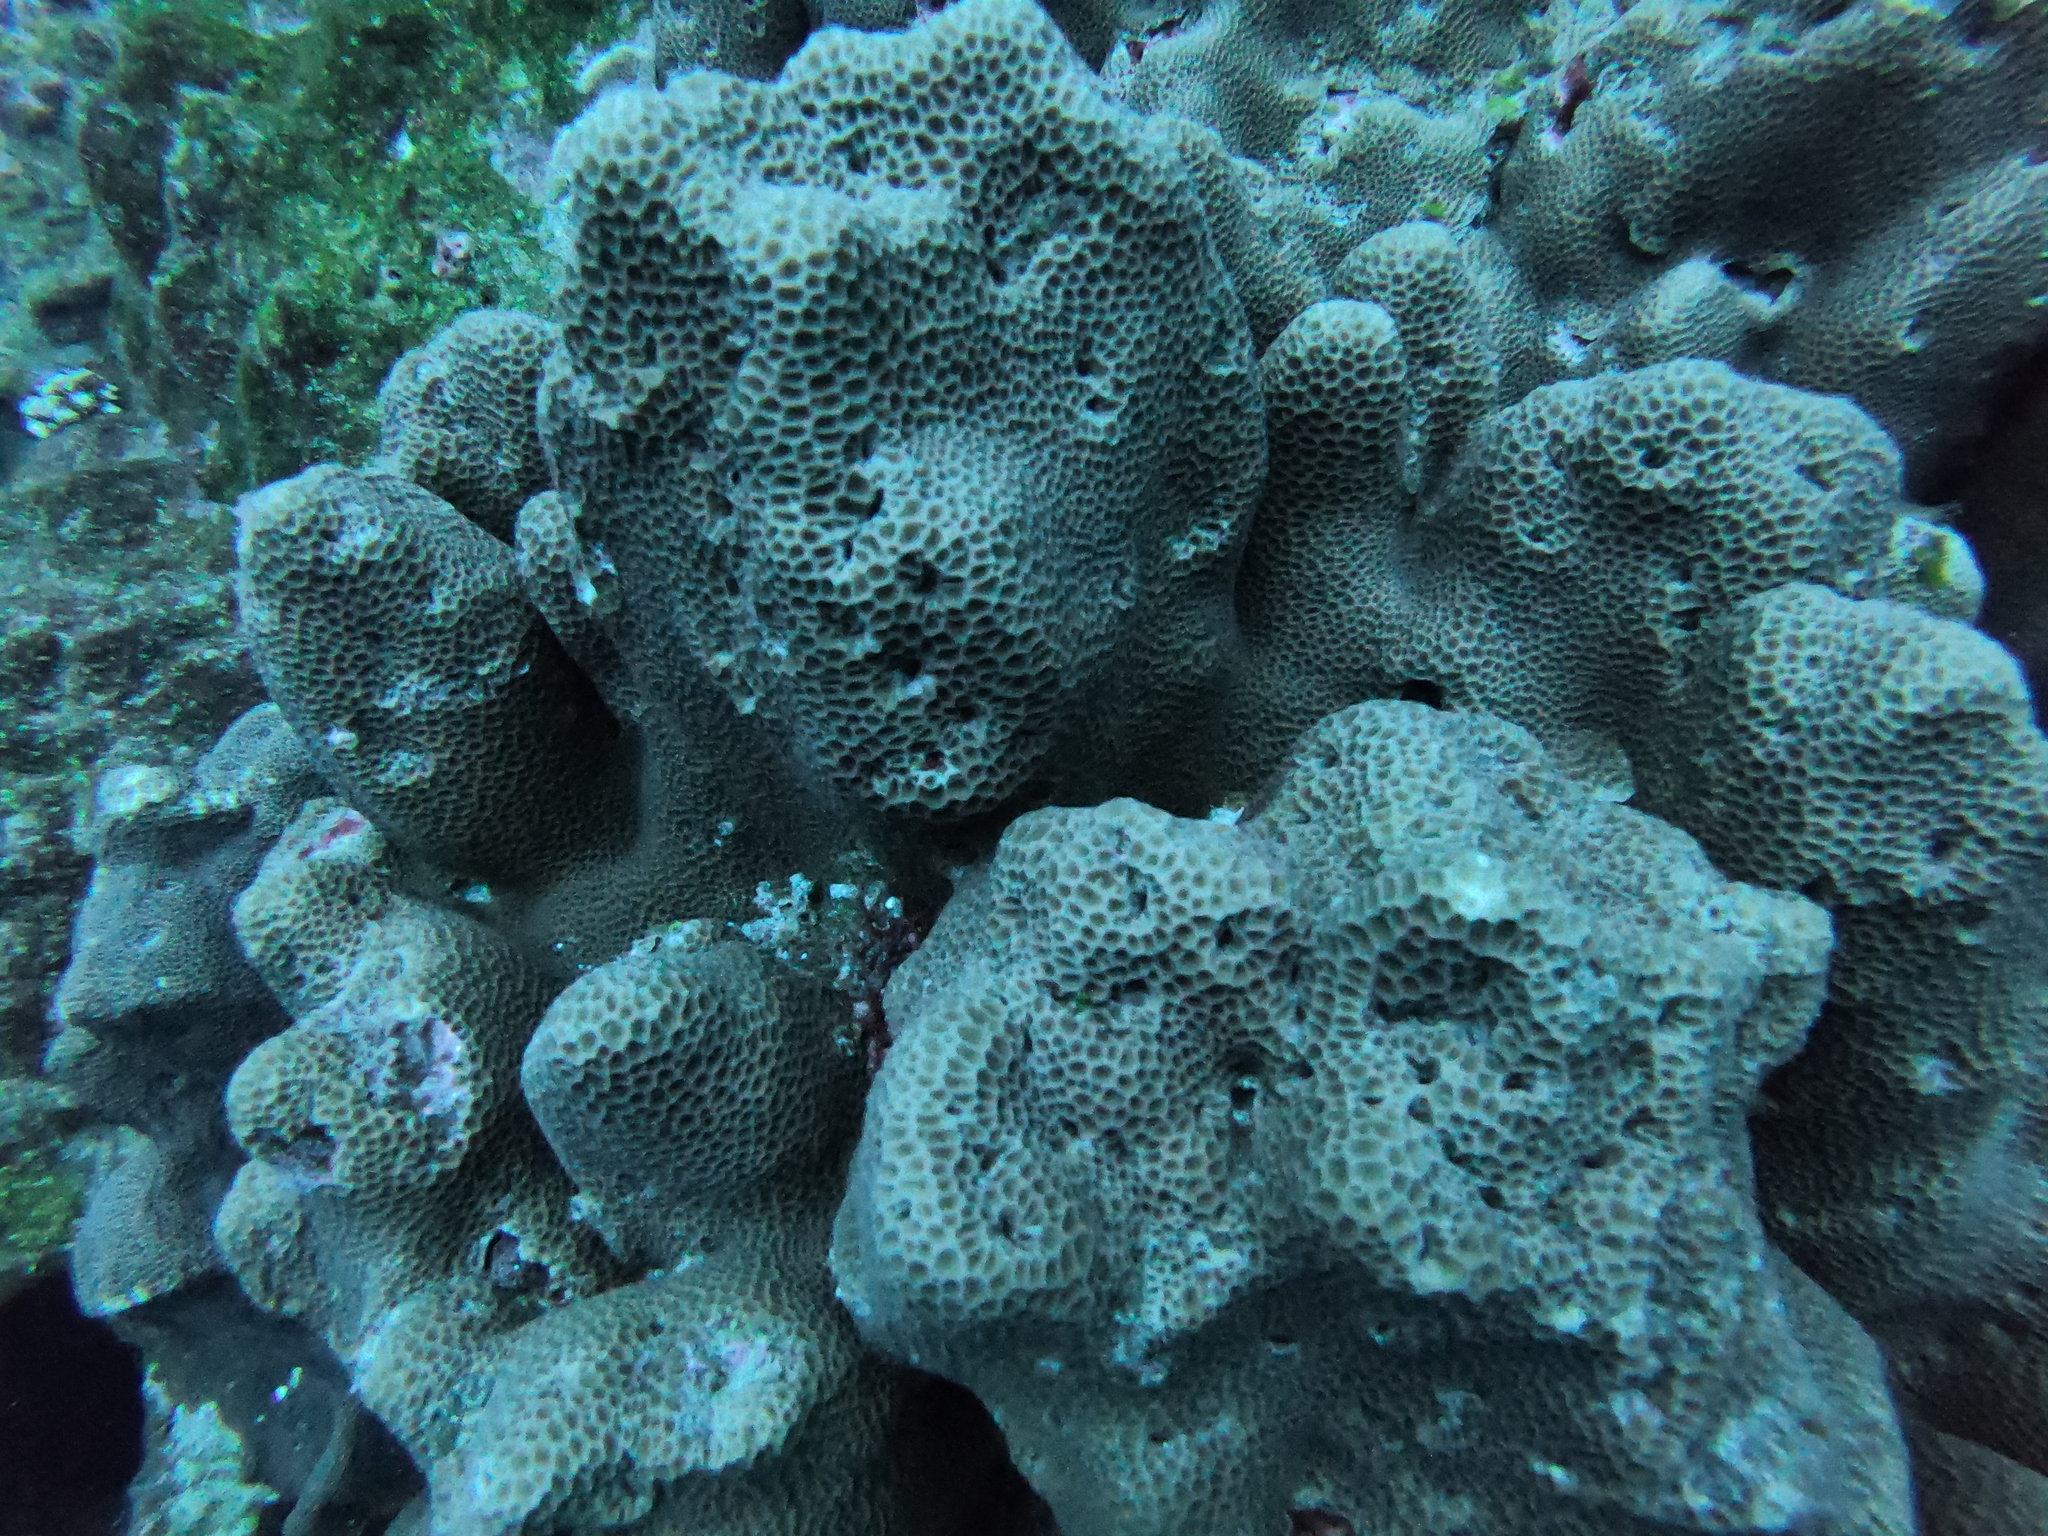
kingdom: Animalia
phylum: Cnidaria
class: Anthozoa
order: Scleractinia
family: Agariciidae
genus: Gardineroseris
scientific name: Gardineroseris planulata
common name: Gardiner's coral
